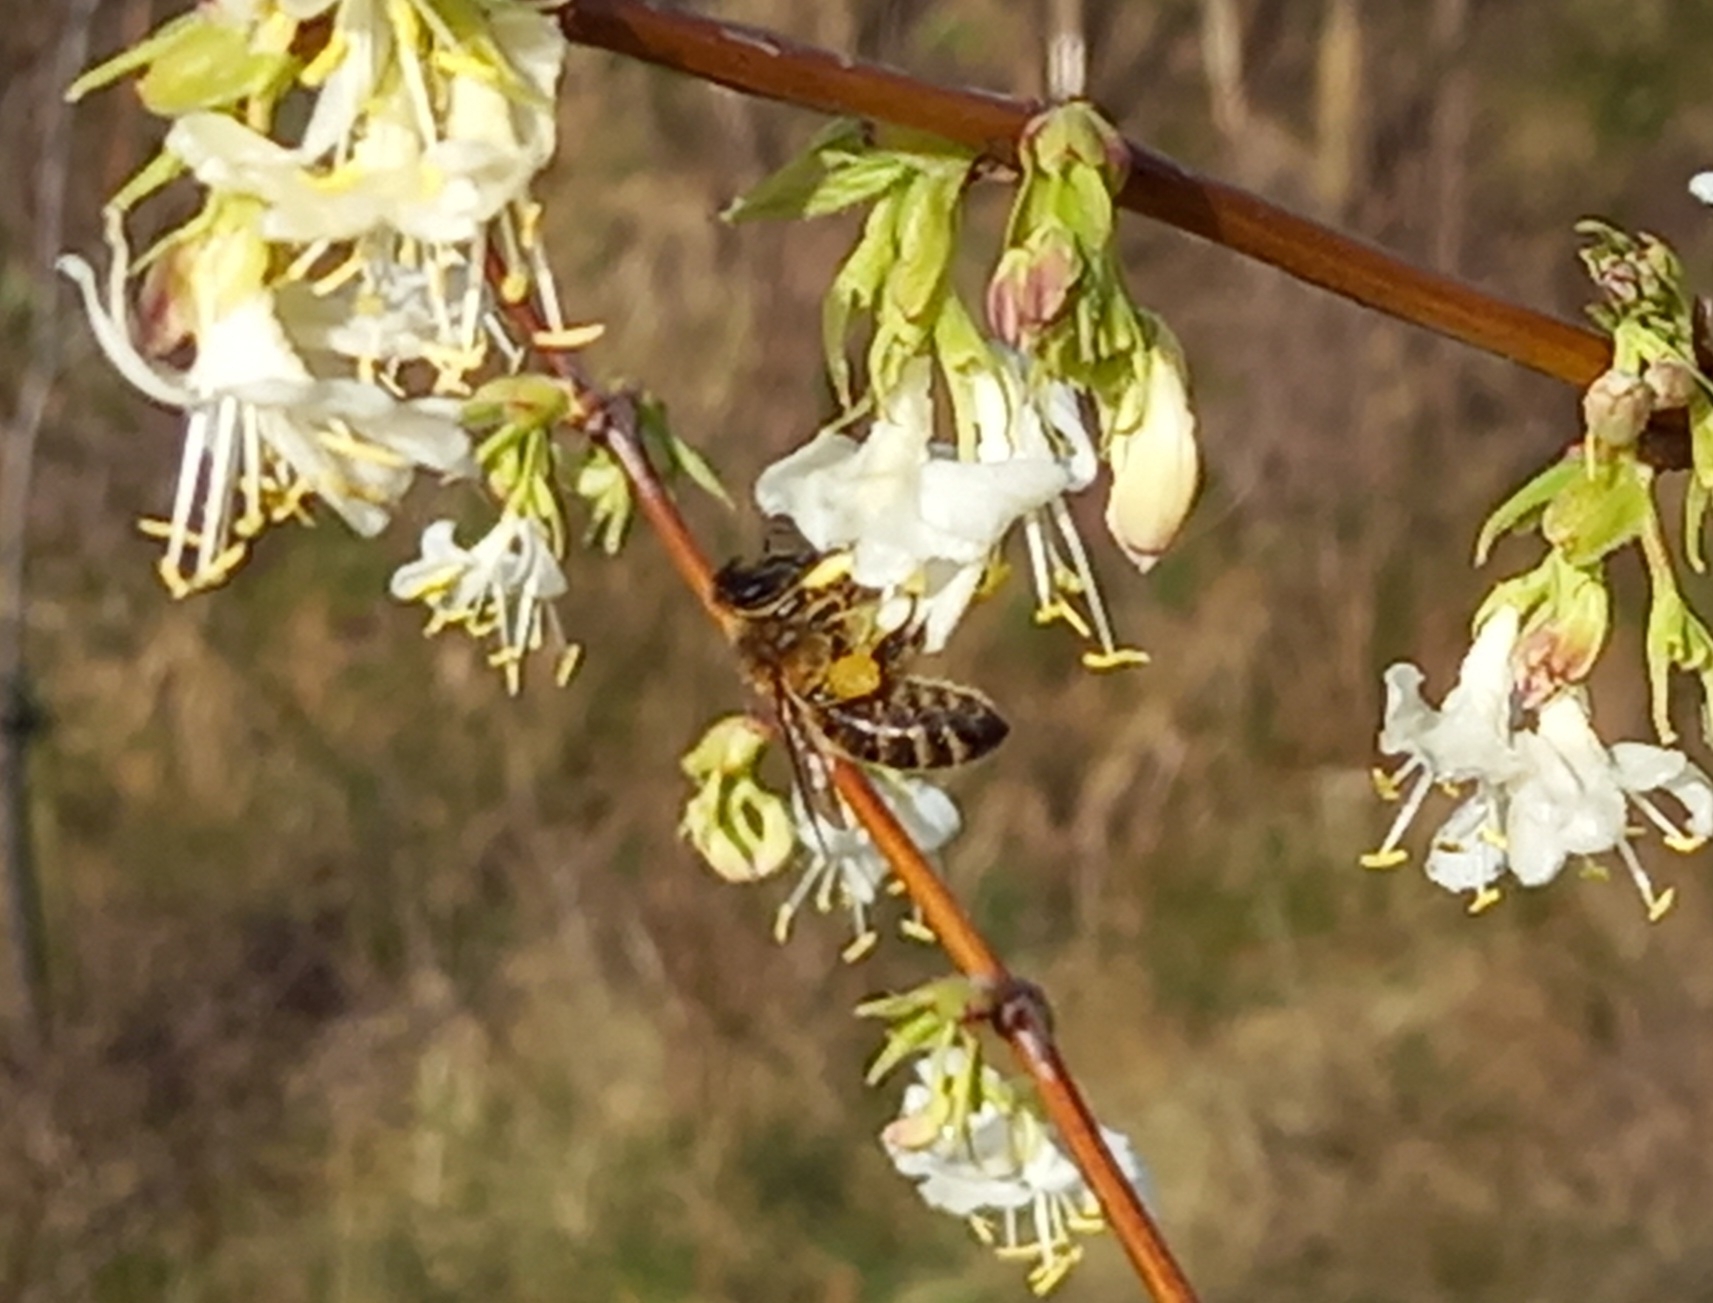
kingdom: Animalia
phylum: Arthropoda
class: Insecta
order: Hymenoptera
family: Apidae
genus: Apis
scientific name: Apis mellifera
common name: Honey bee
